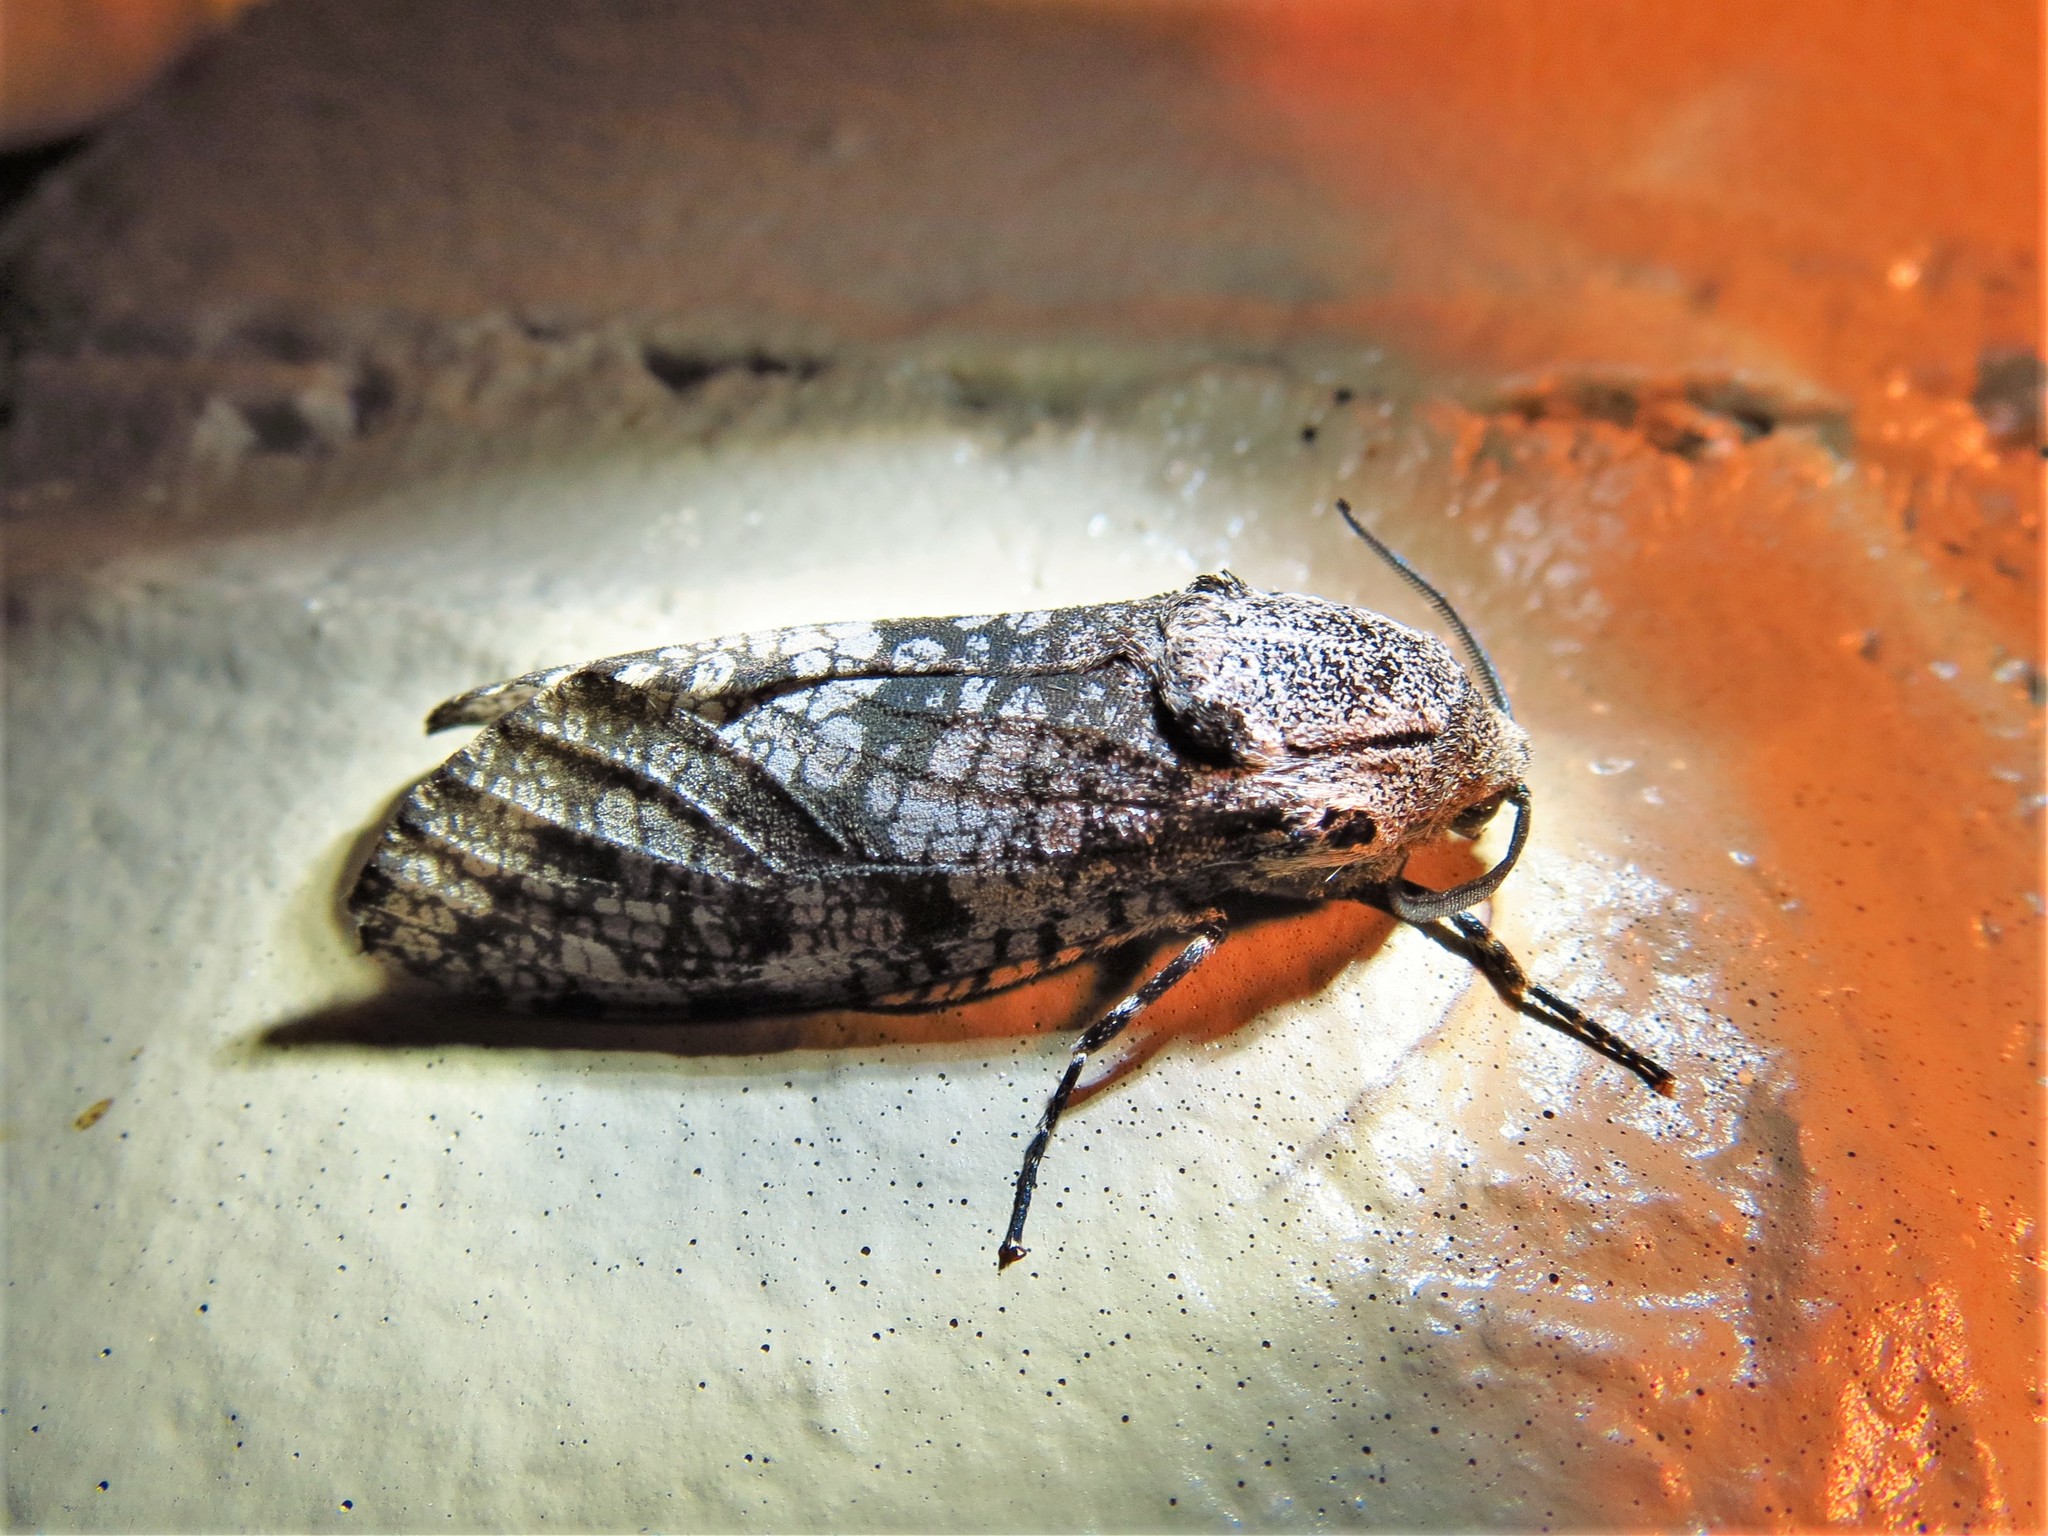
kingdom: Animalia
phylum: Arthropoda
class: Insecta
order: Lepidoptera
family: Cossidae
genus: Prionoxystus
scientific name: Prionoxystus robiniae
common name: Carpenterworm
